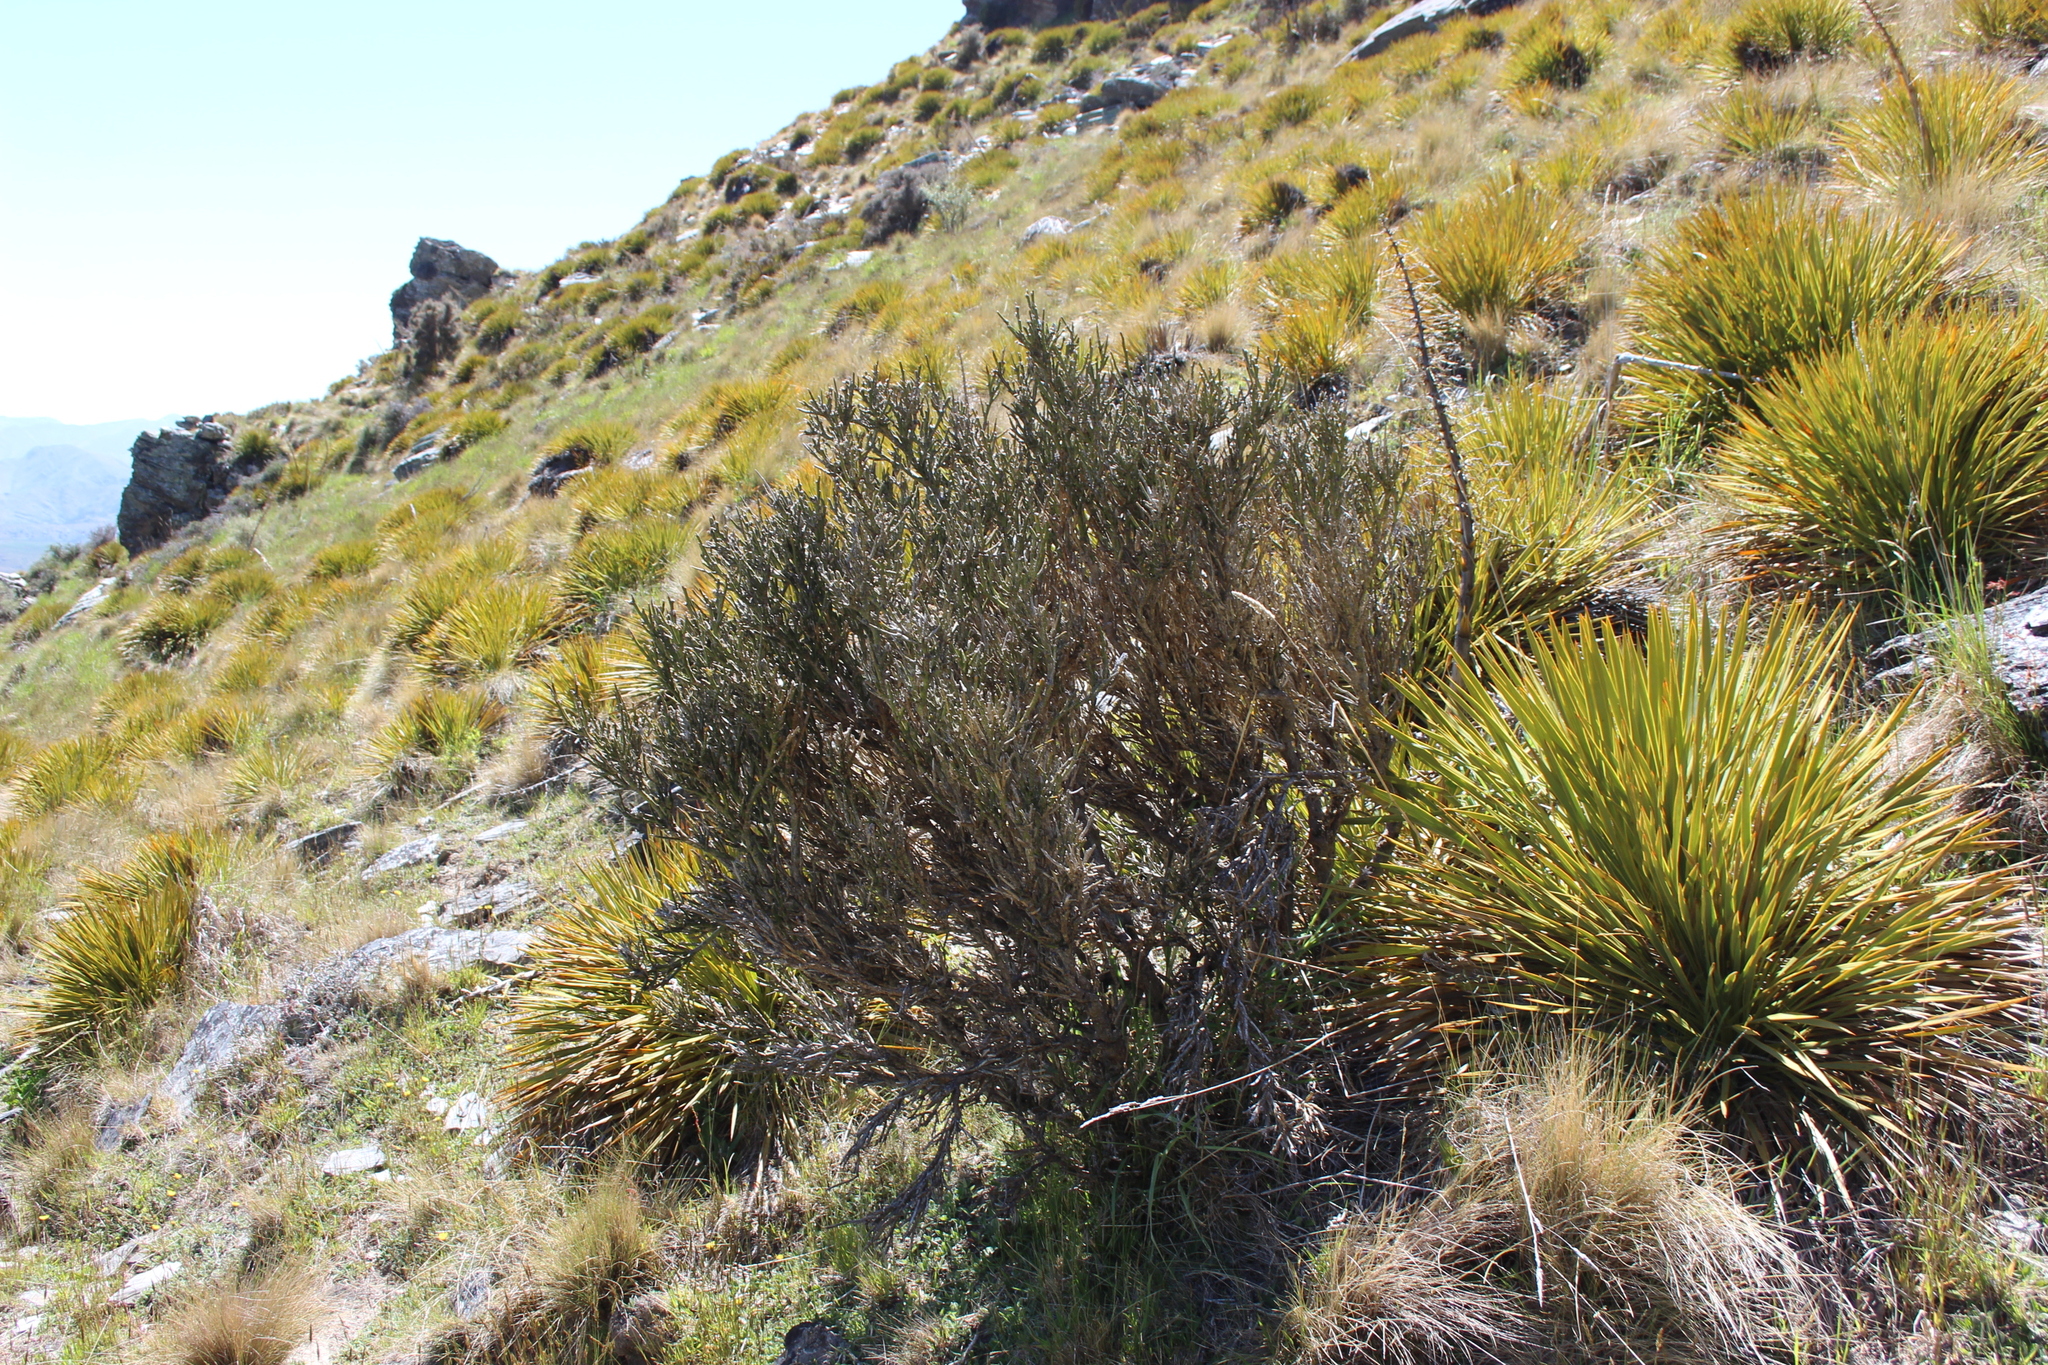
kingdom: Plantae
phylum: Tracheophyta
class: Magnoliopsida
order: Fabales
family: Fabaceae
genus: Carmichaelia
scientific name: Carmichaelia petriei
